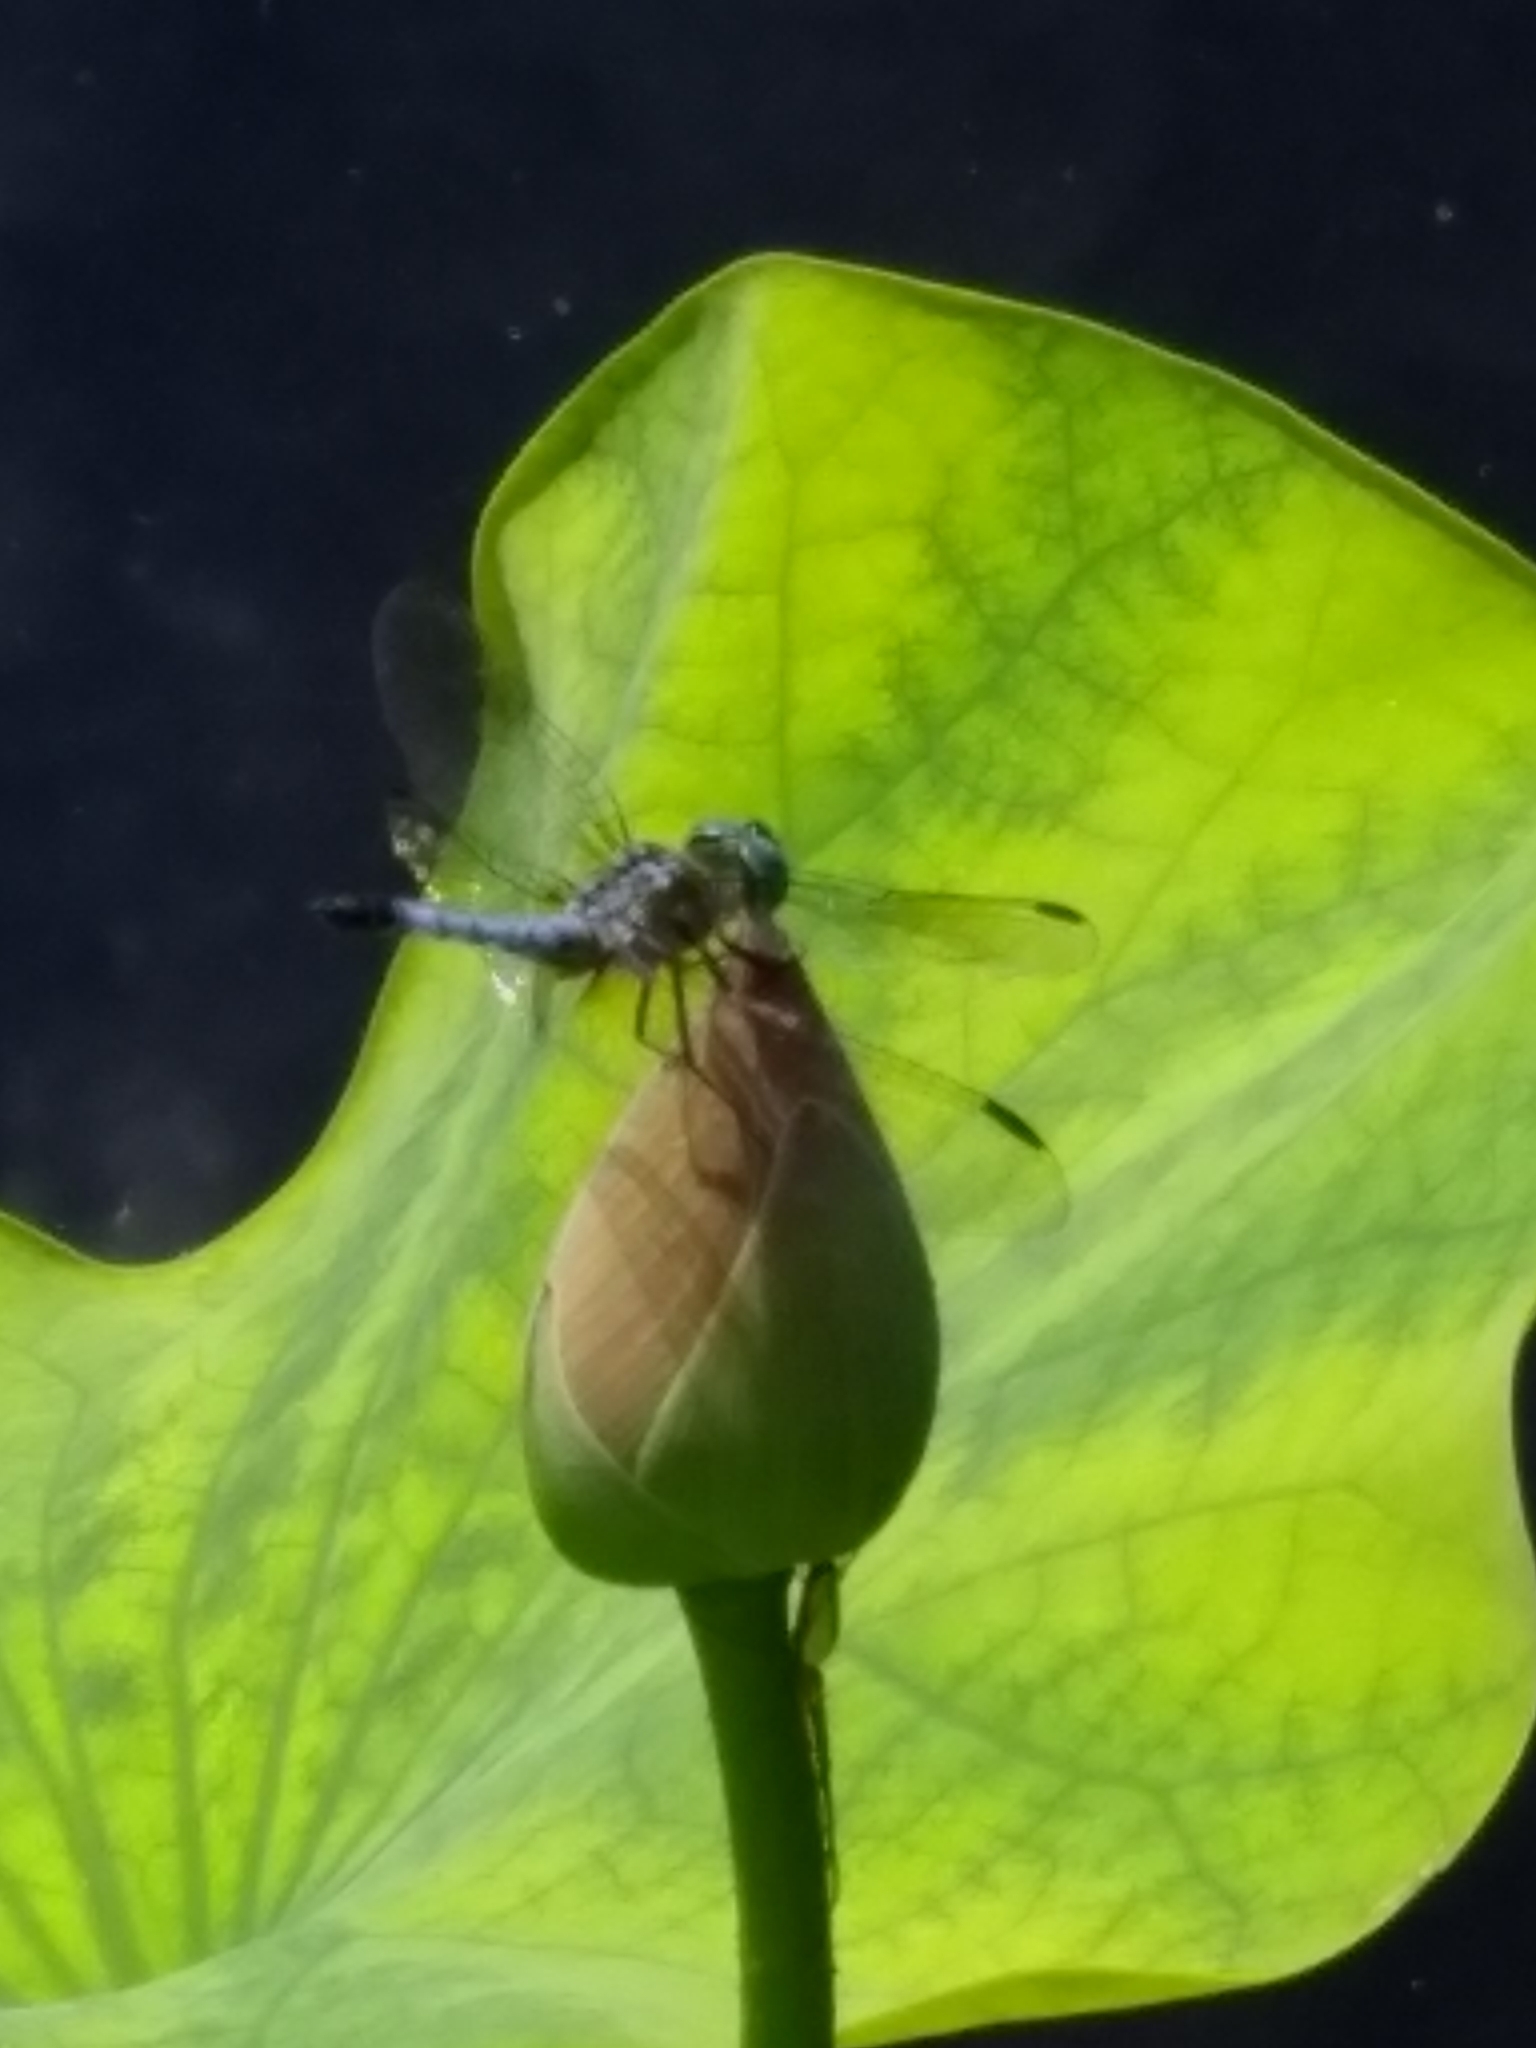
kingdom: Animalia
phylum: Arthropoda
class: Insecta
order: Odonata
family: Libellulidae
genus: Pachydiplax
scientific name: Pachydiplax longipennis
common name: Blue dasher
